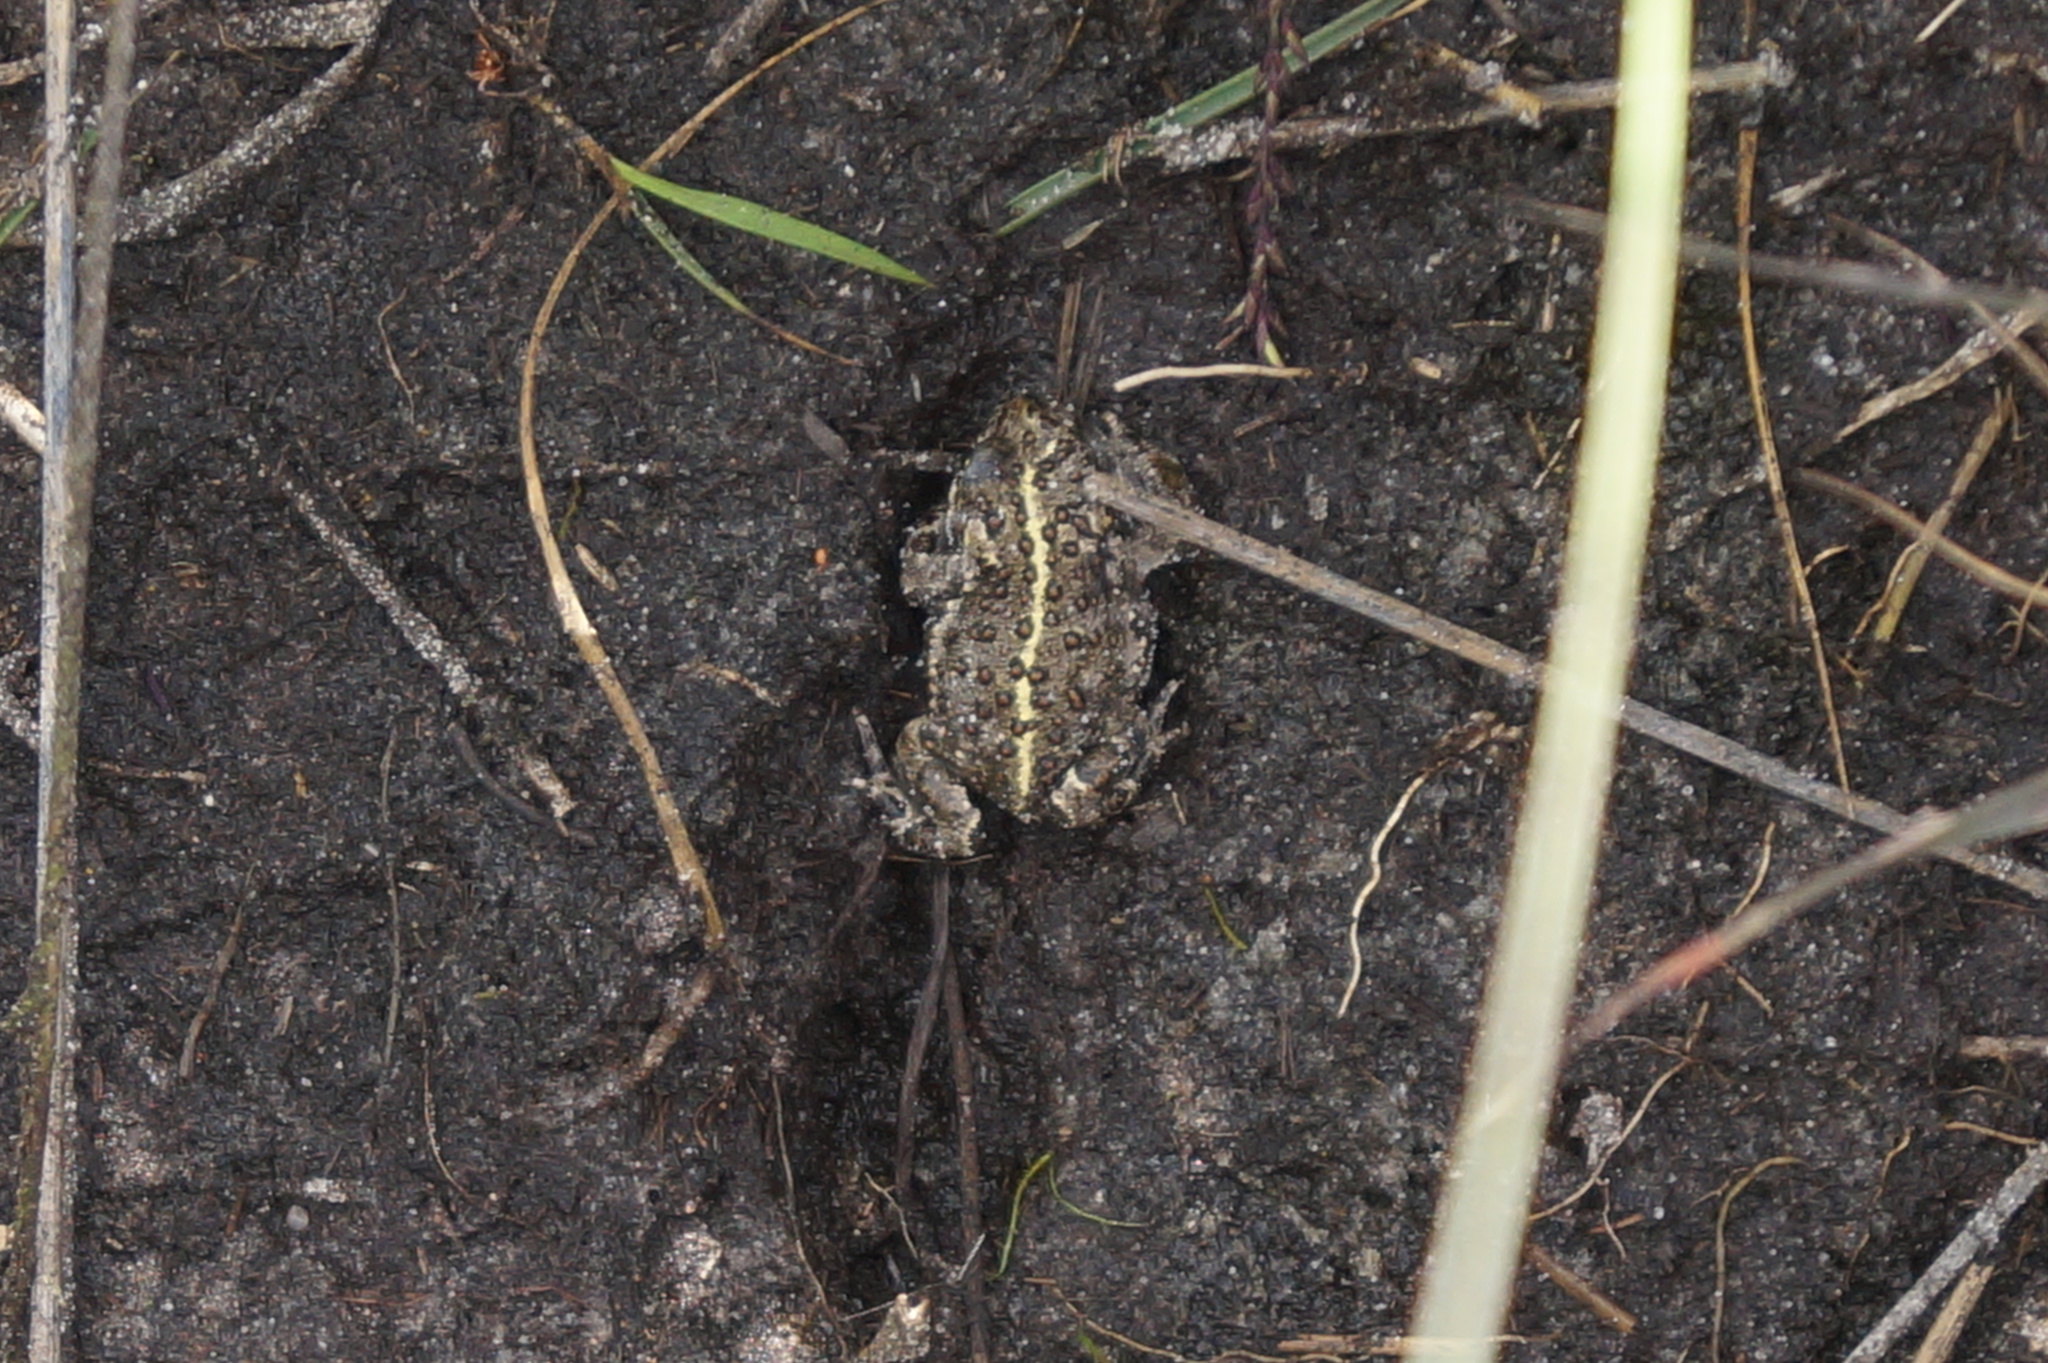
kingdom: Animalia
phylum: Chordata
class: Amphibia
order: Anura
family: Bufonidae
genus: Epidalea
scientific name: Epidalea calamita
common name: Natterjack toad
